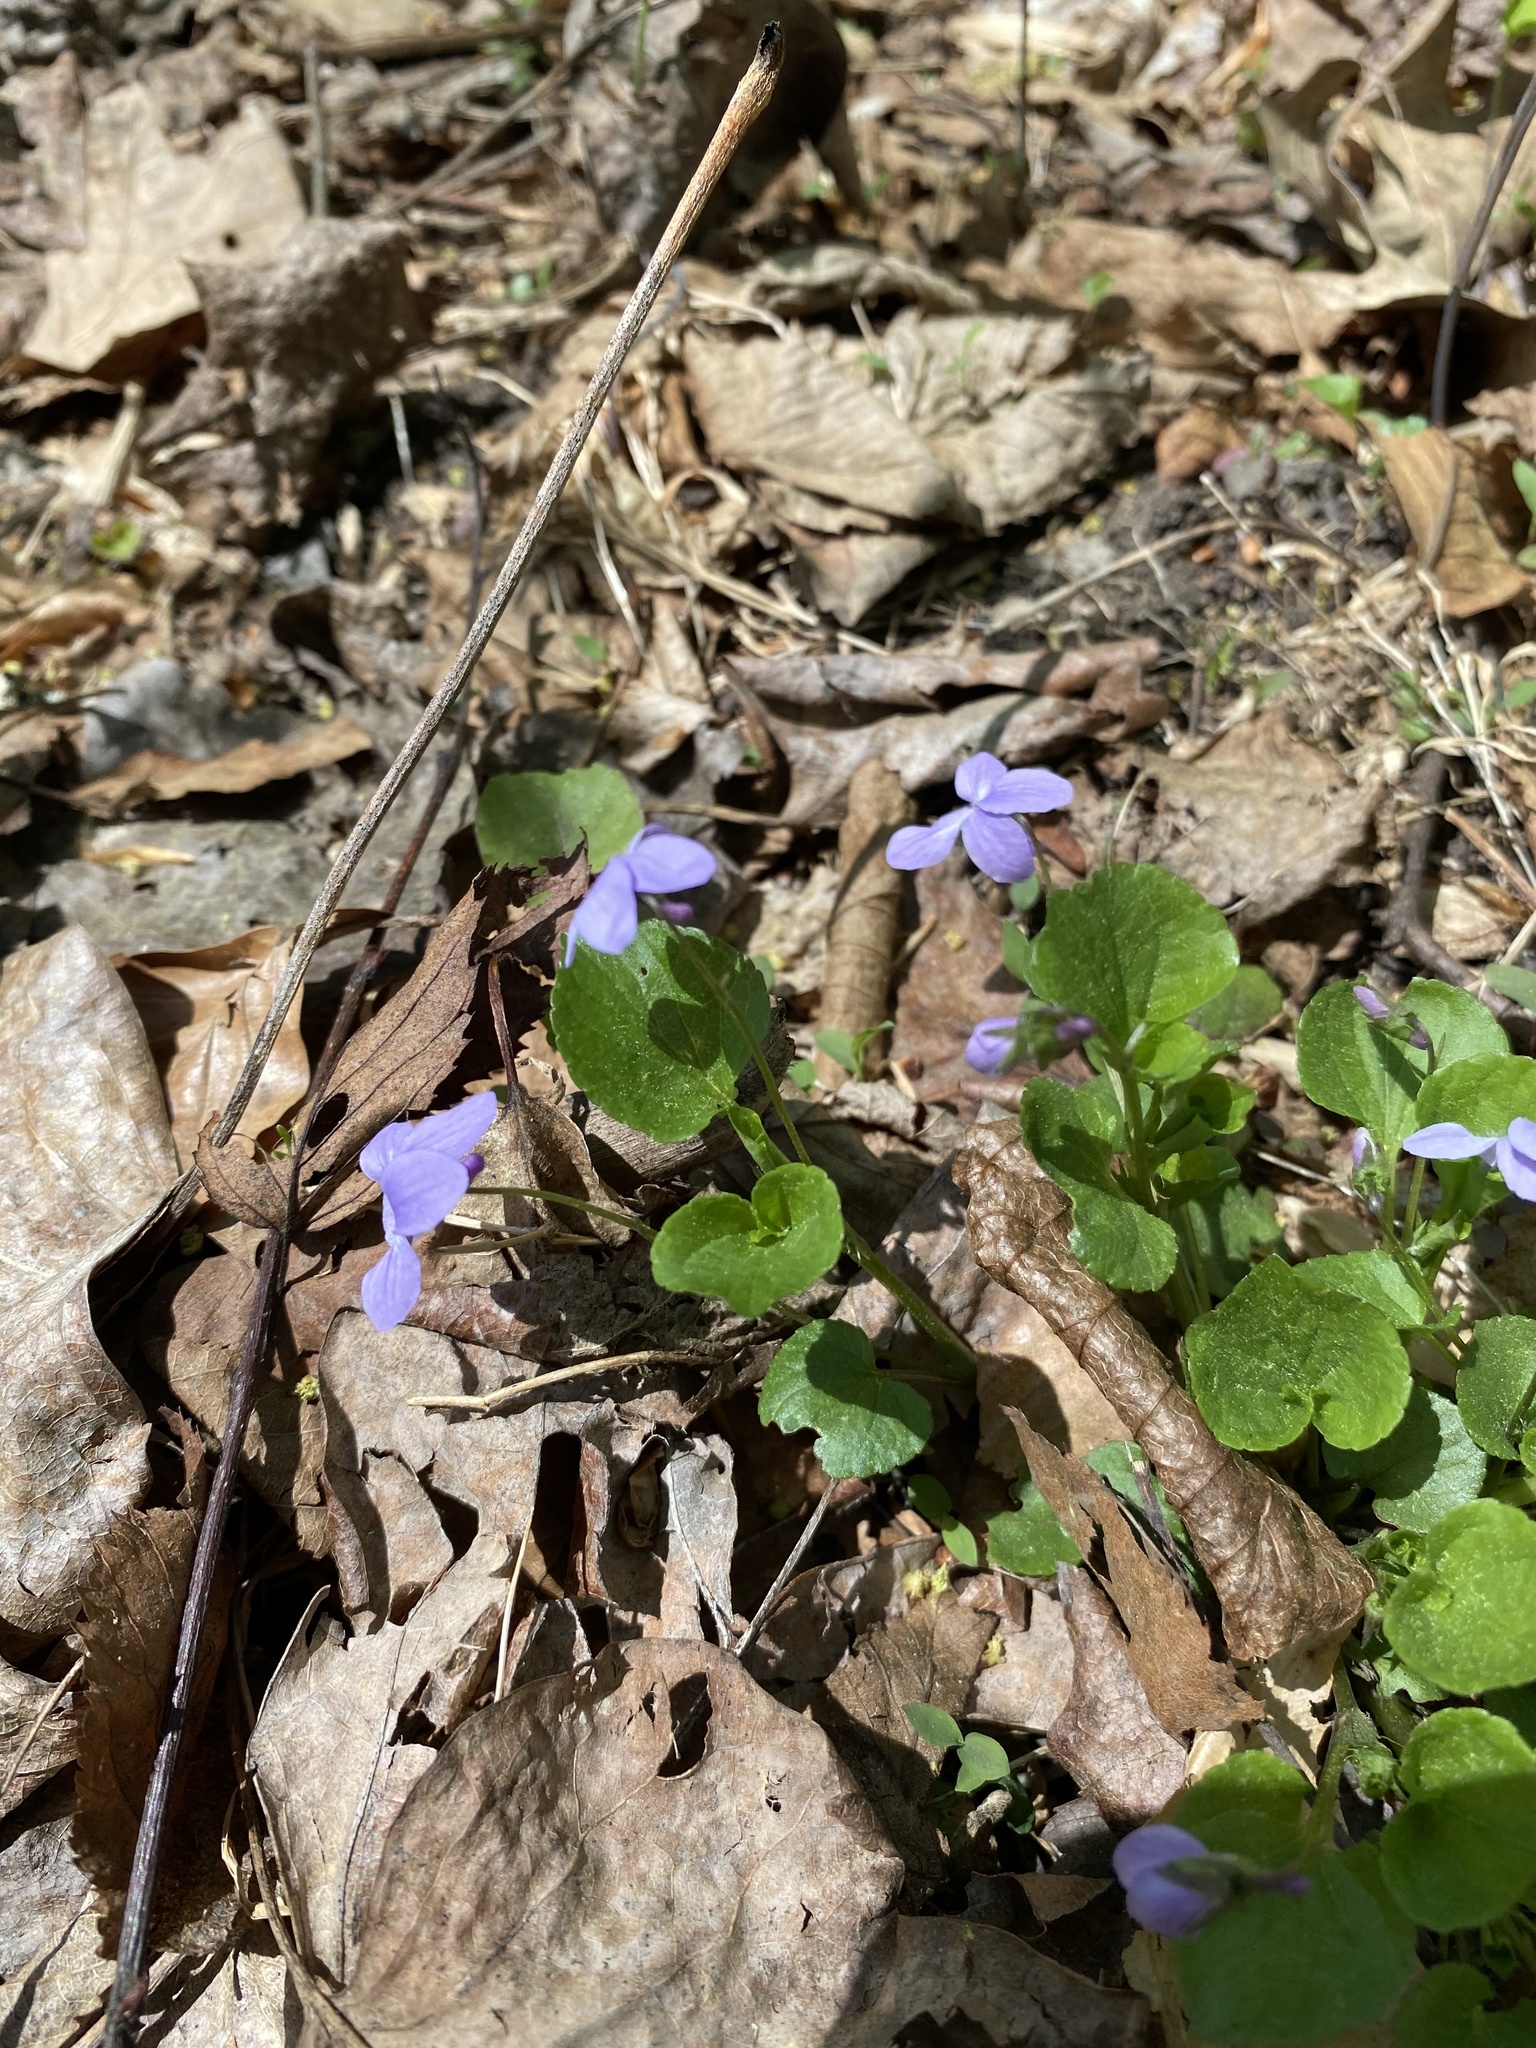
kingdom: Plantae
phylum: Tracheophyta
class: Magnoliopsida
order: Malpighiales
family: Violaceae
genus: Viola
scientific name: Viola labradorica
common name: Labrador violet
